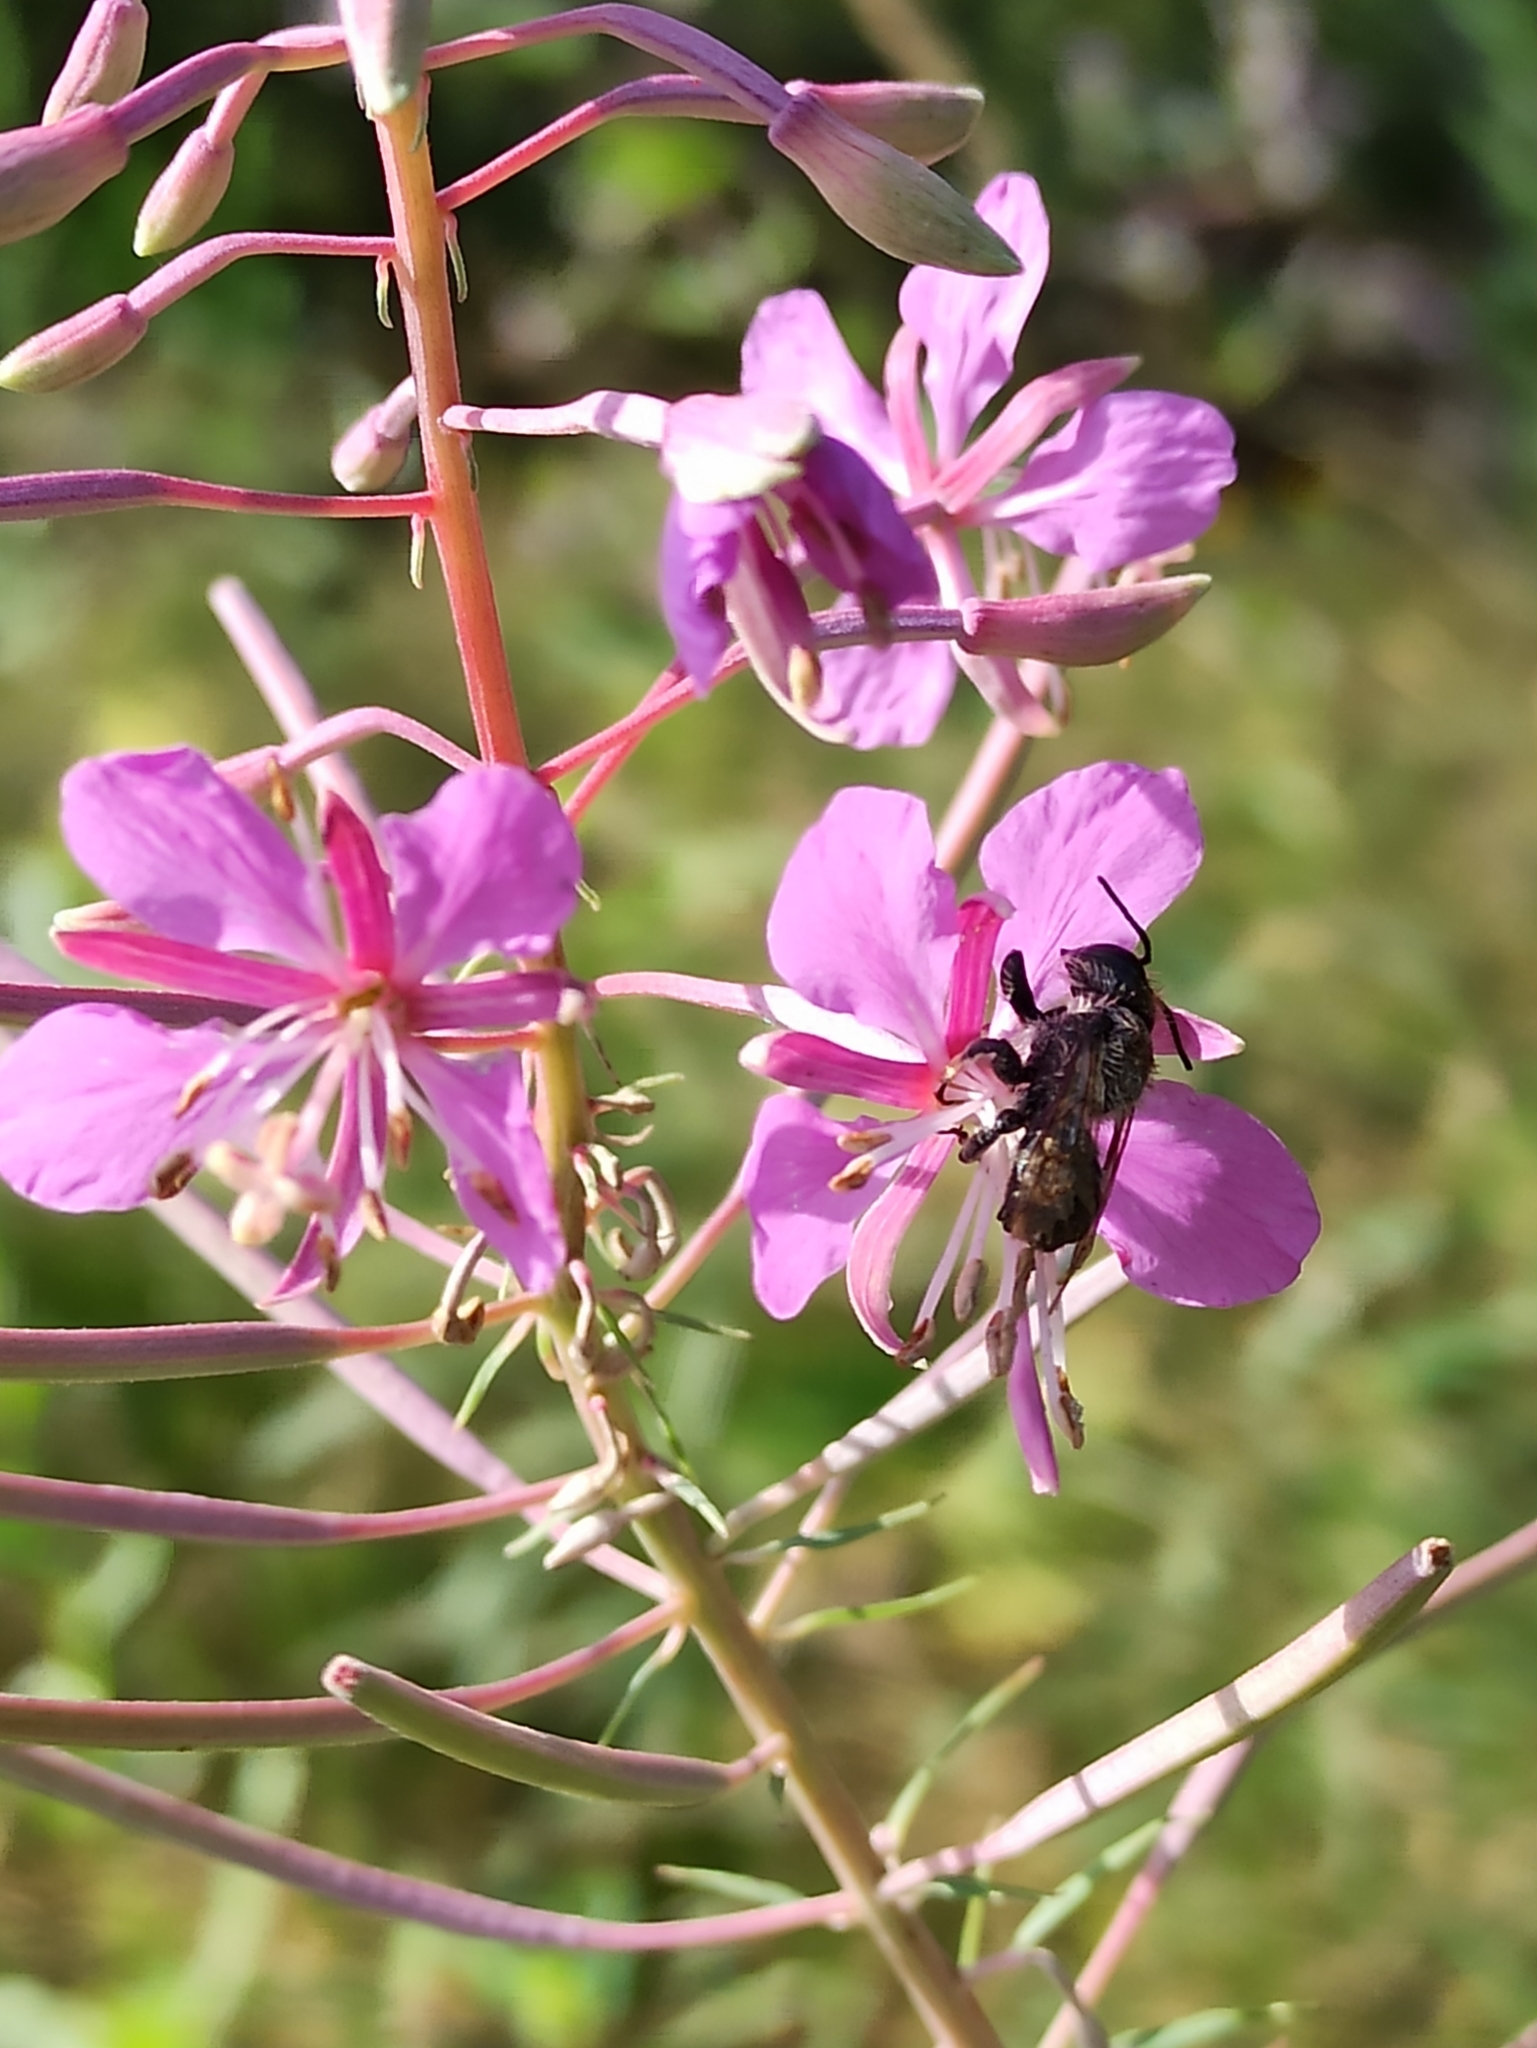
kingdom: Plantae
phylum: Tracheophyta
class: Magnoliopsida
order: Myrtales
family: Onagraceae
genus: Chamaenerion
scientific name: Chamaenerion angustifolium
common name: Fireweed
